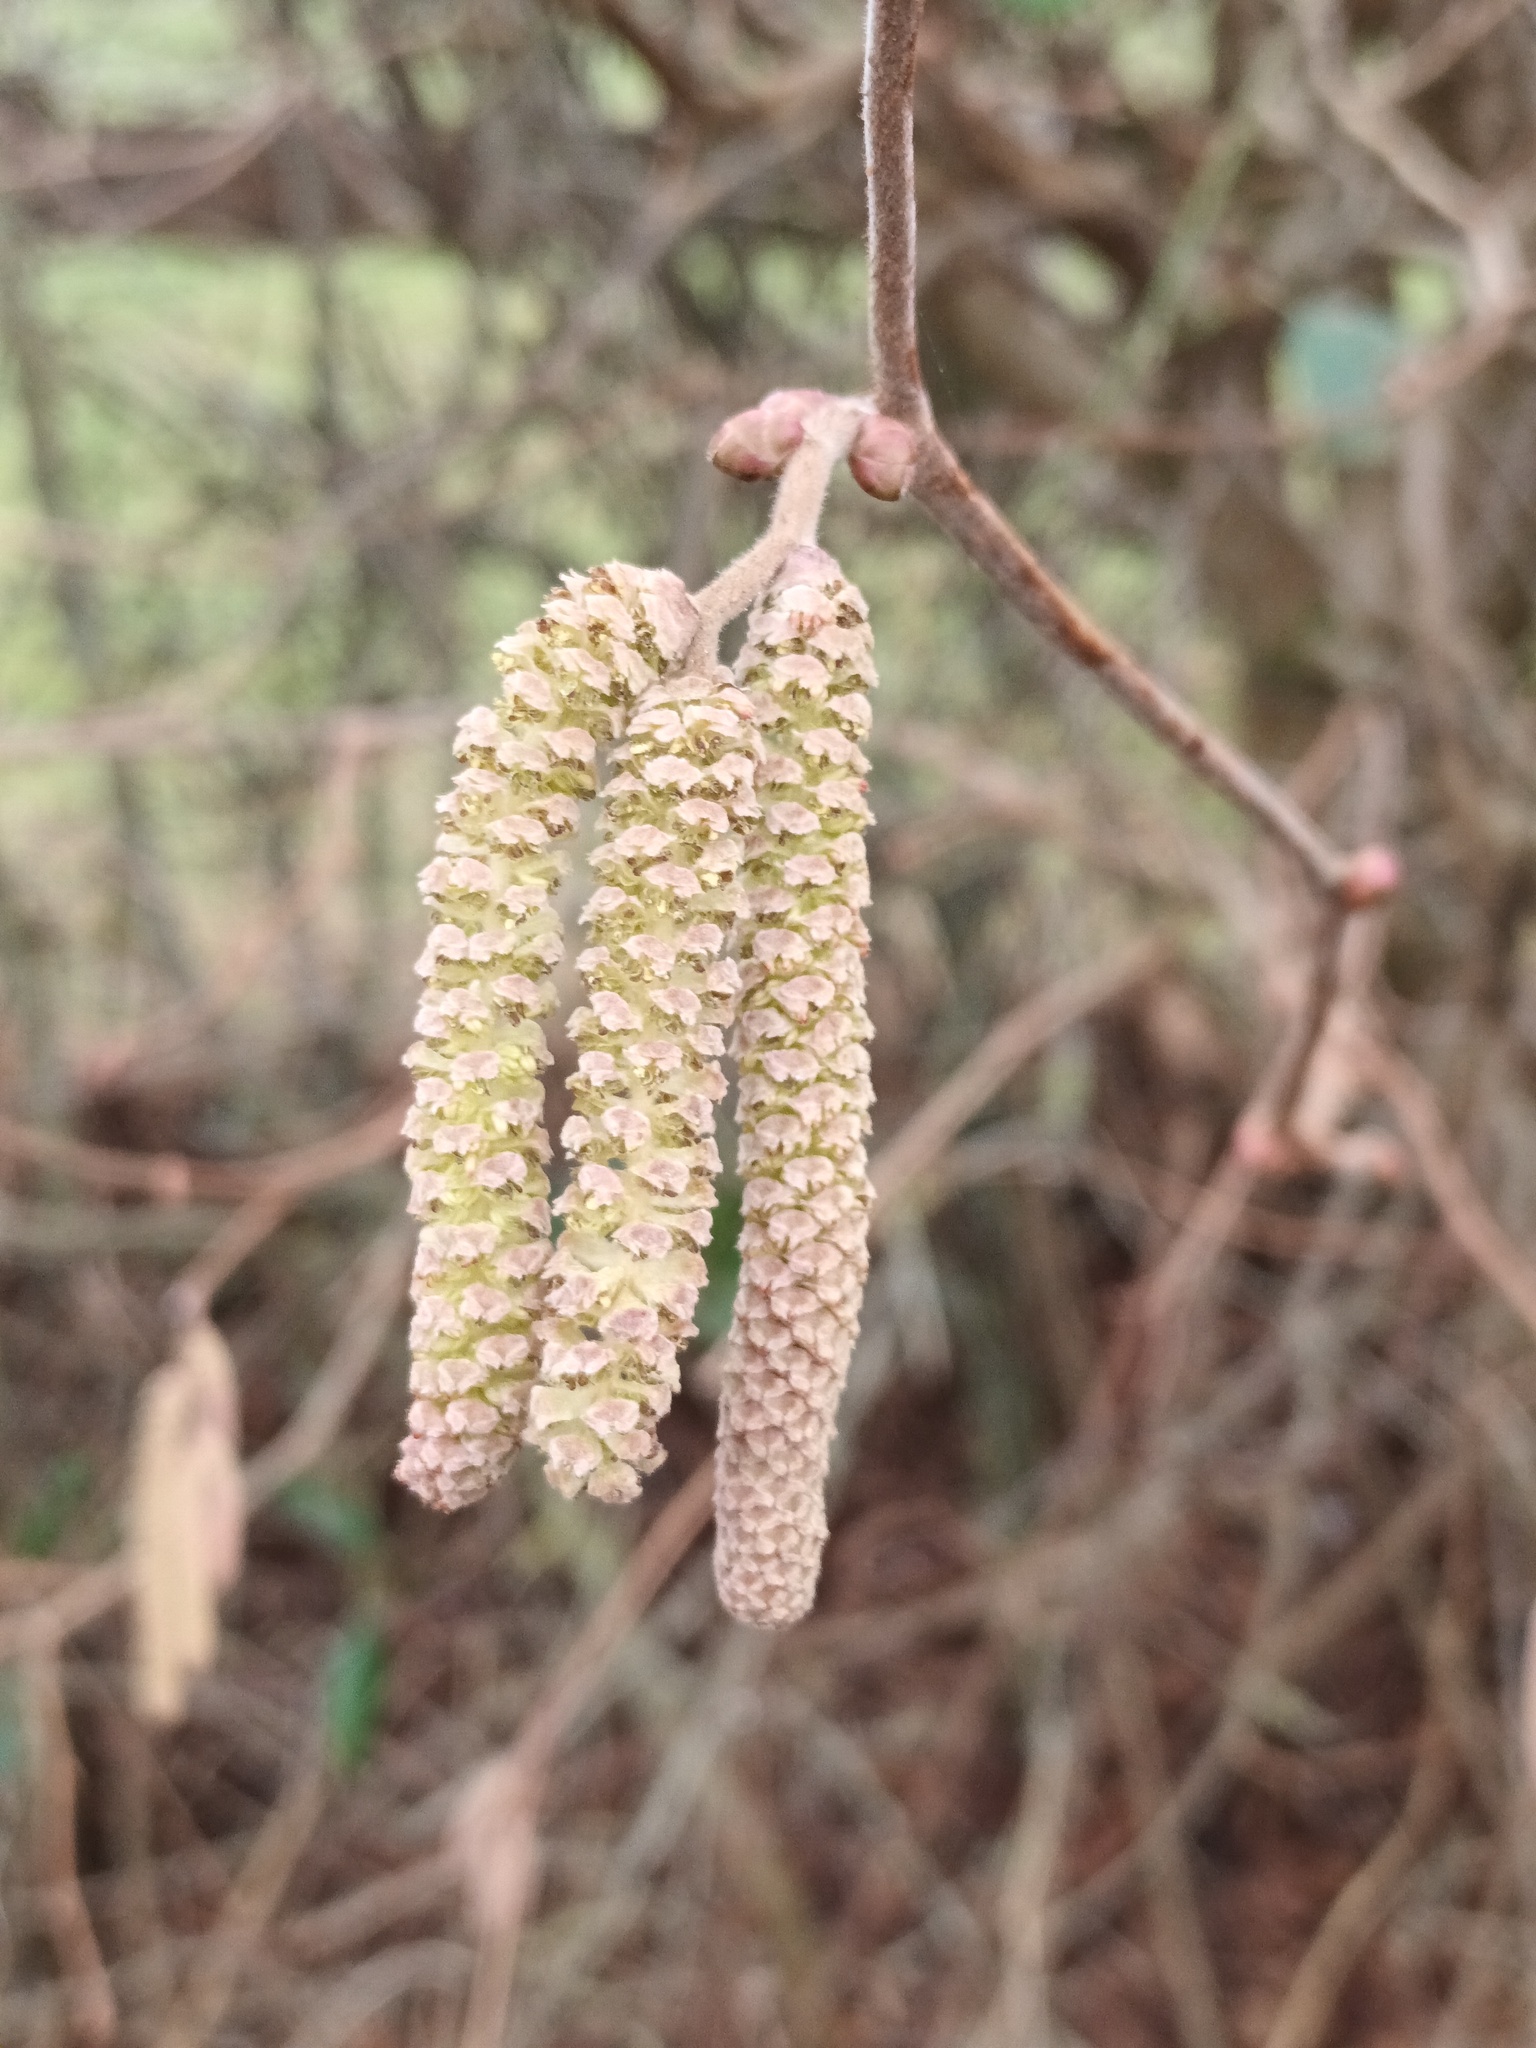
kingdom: Plantae
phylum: Tracheophyta
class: Magnoliopsida
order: Fagales
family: Betulaceae
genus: Corylus
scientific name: Corylus avellana
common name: European hazel
